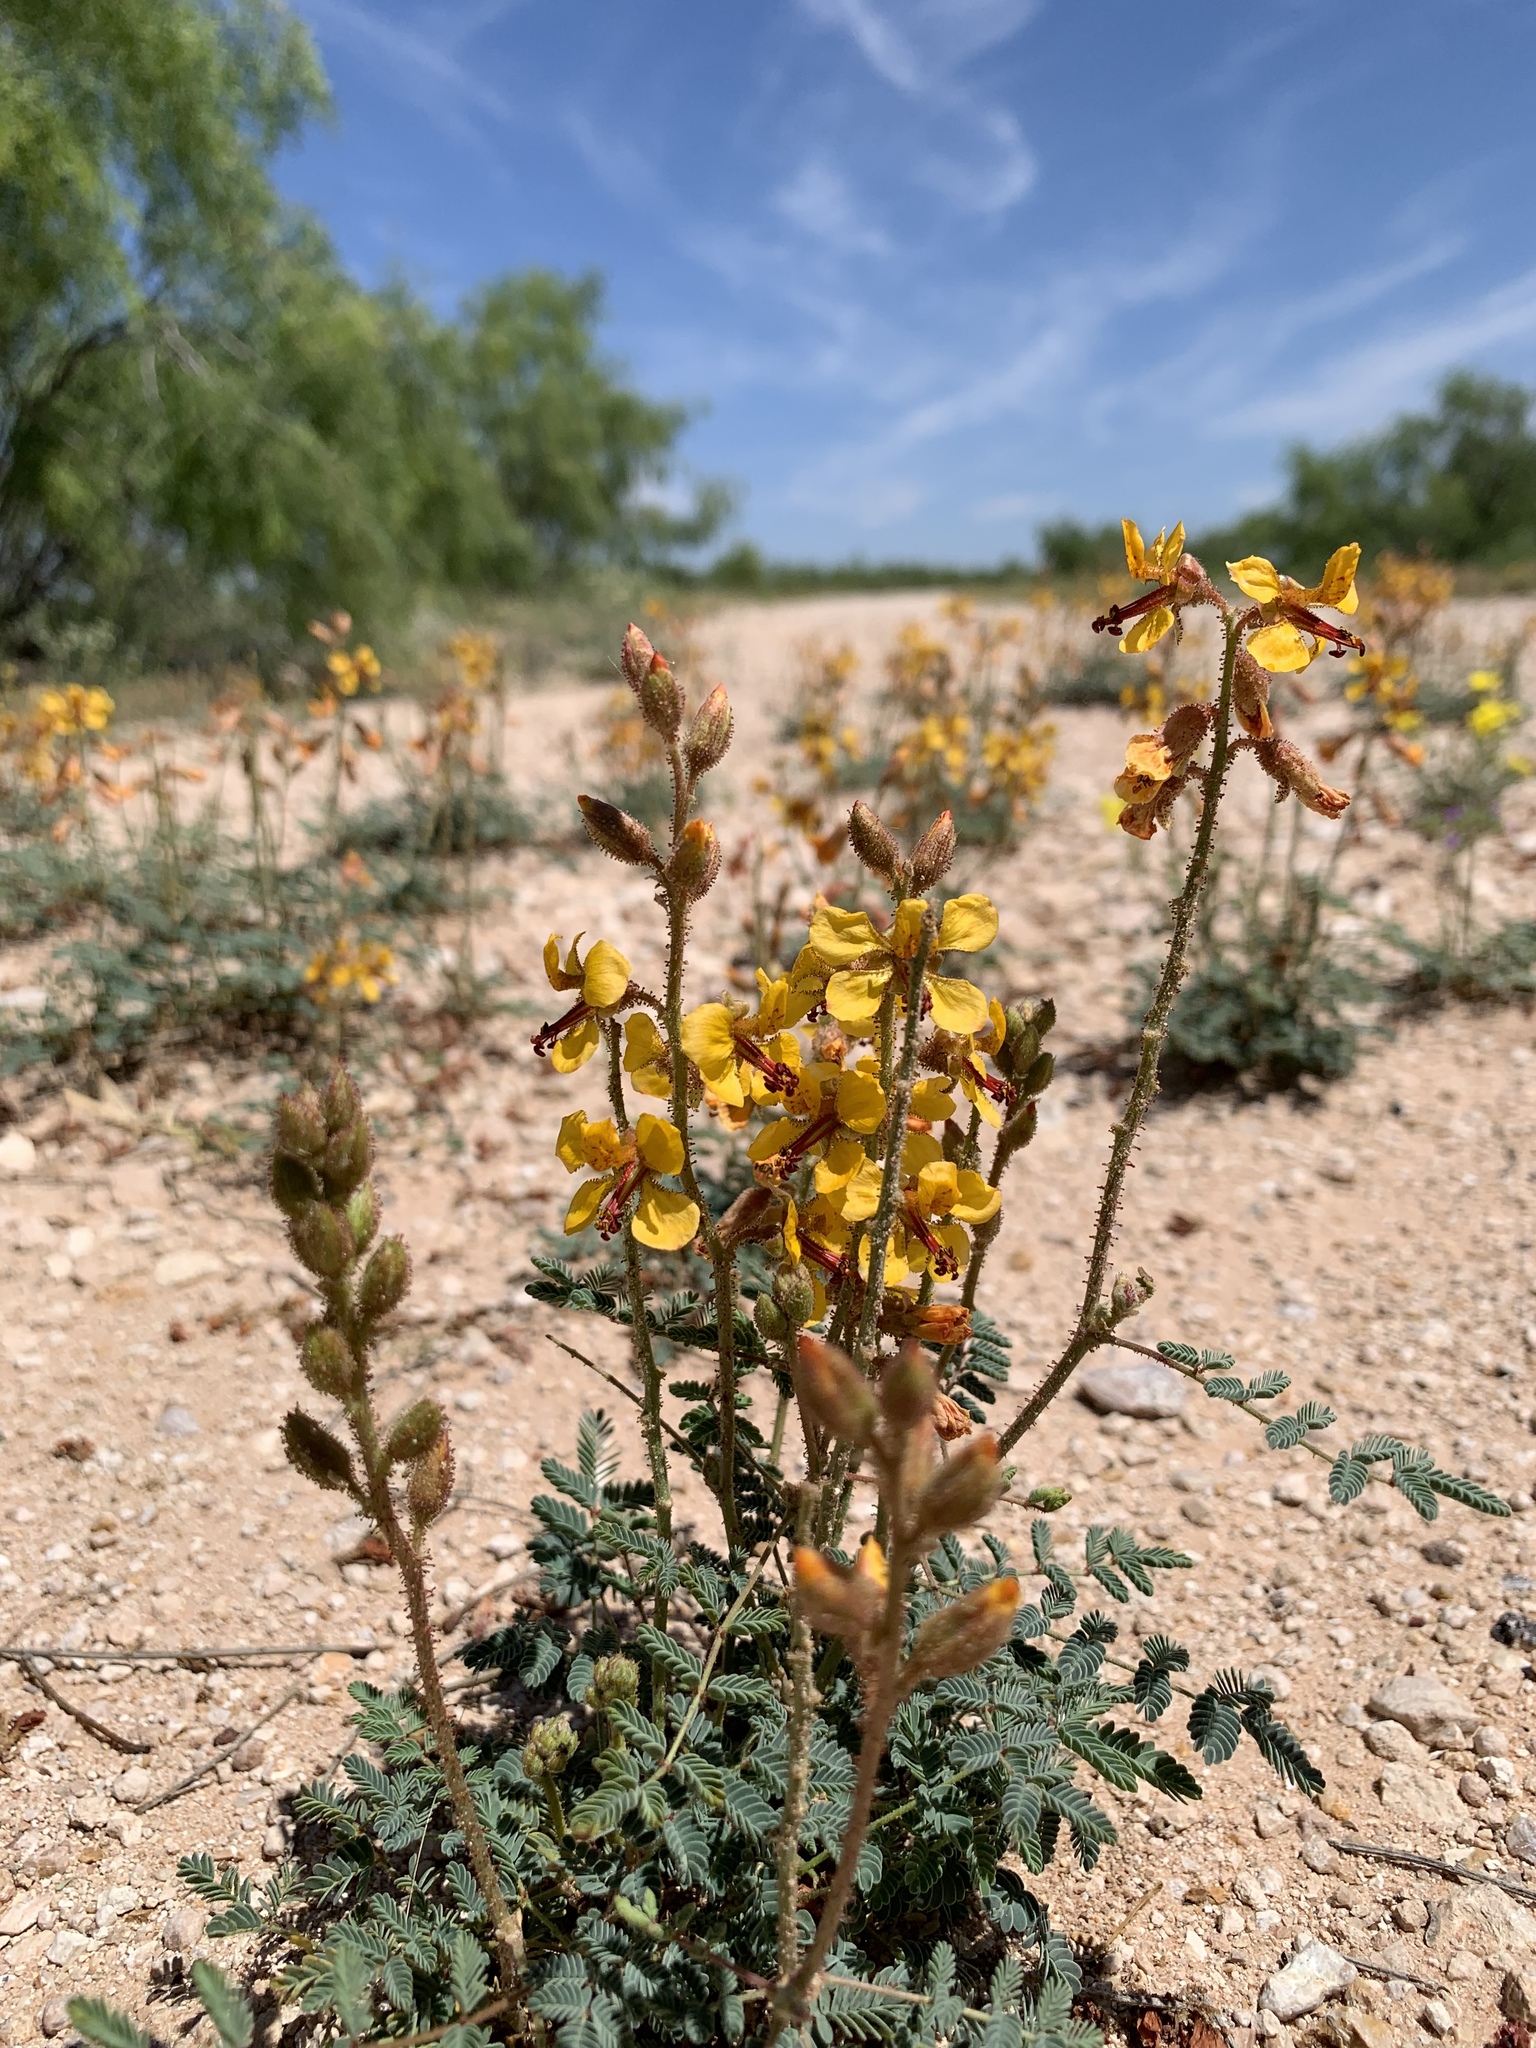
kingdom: Plantae
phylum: Tracheophyta
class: Magnoliopsida
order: Fabales
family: Fabaceae
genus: Hoffmannseggia
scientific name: Hoffmannseggia glauca
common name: Pignut
